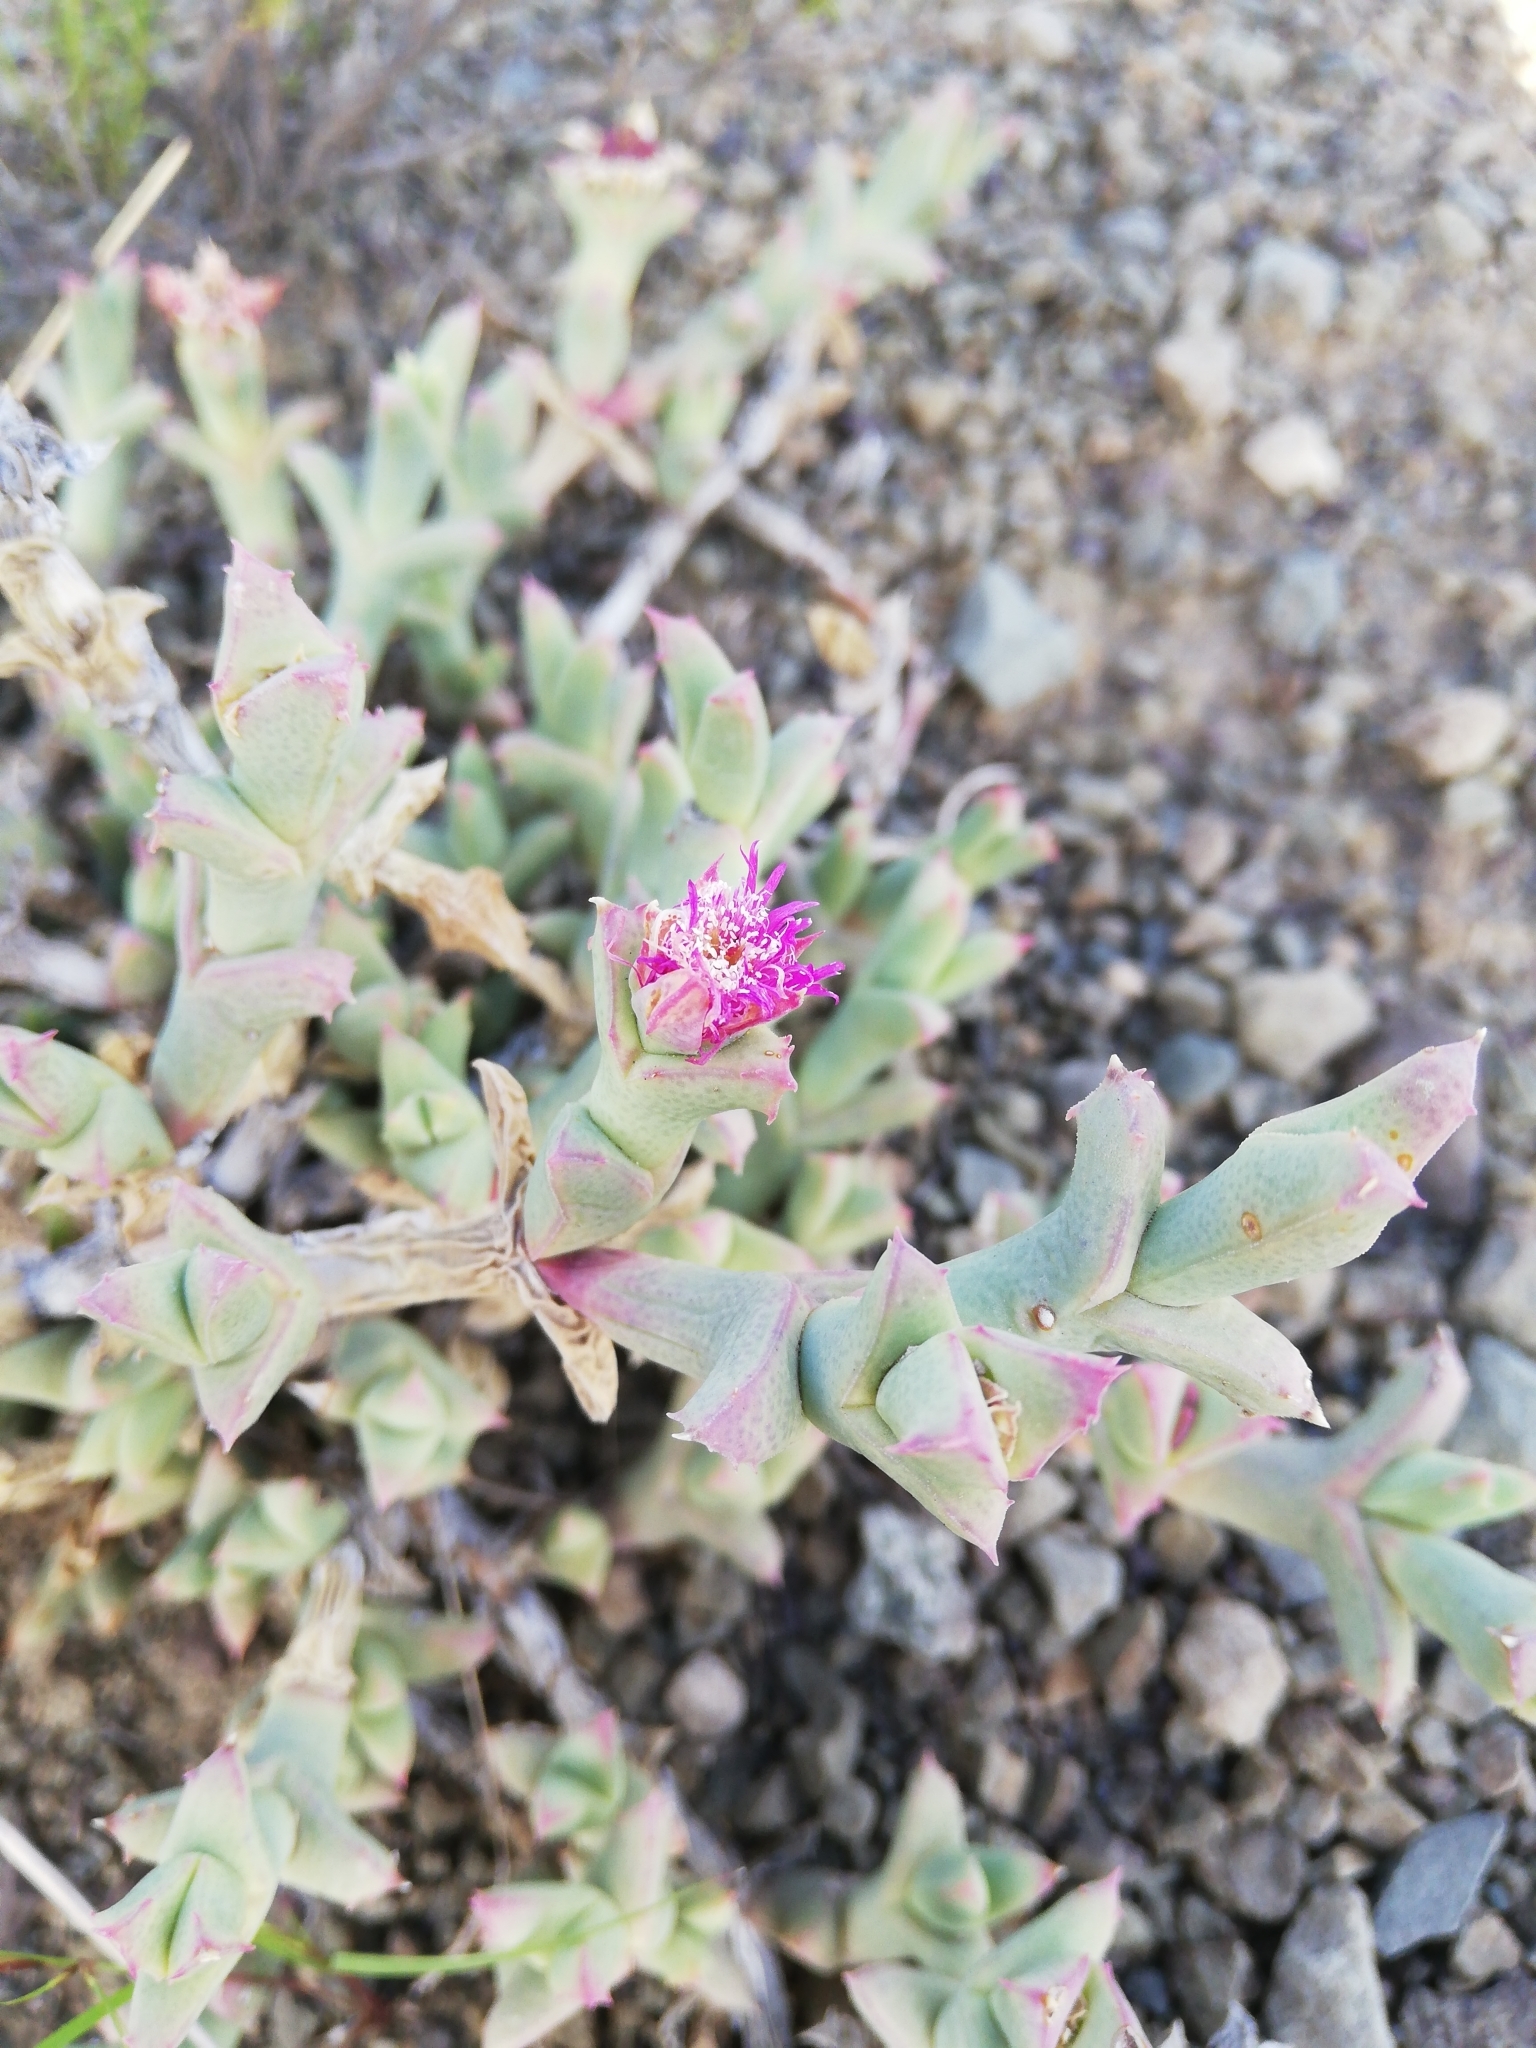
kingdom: Plantae
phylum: Tracheophyta
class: Magnoliopsida
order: Caryophyllales
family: Aizoaceae
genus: Ruschia
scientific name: Ruschia uncinata
